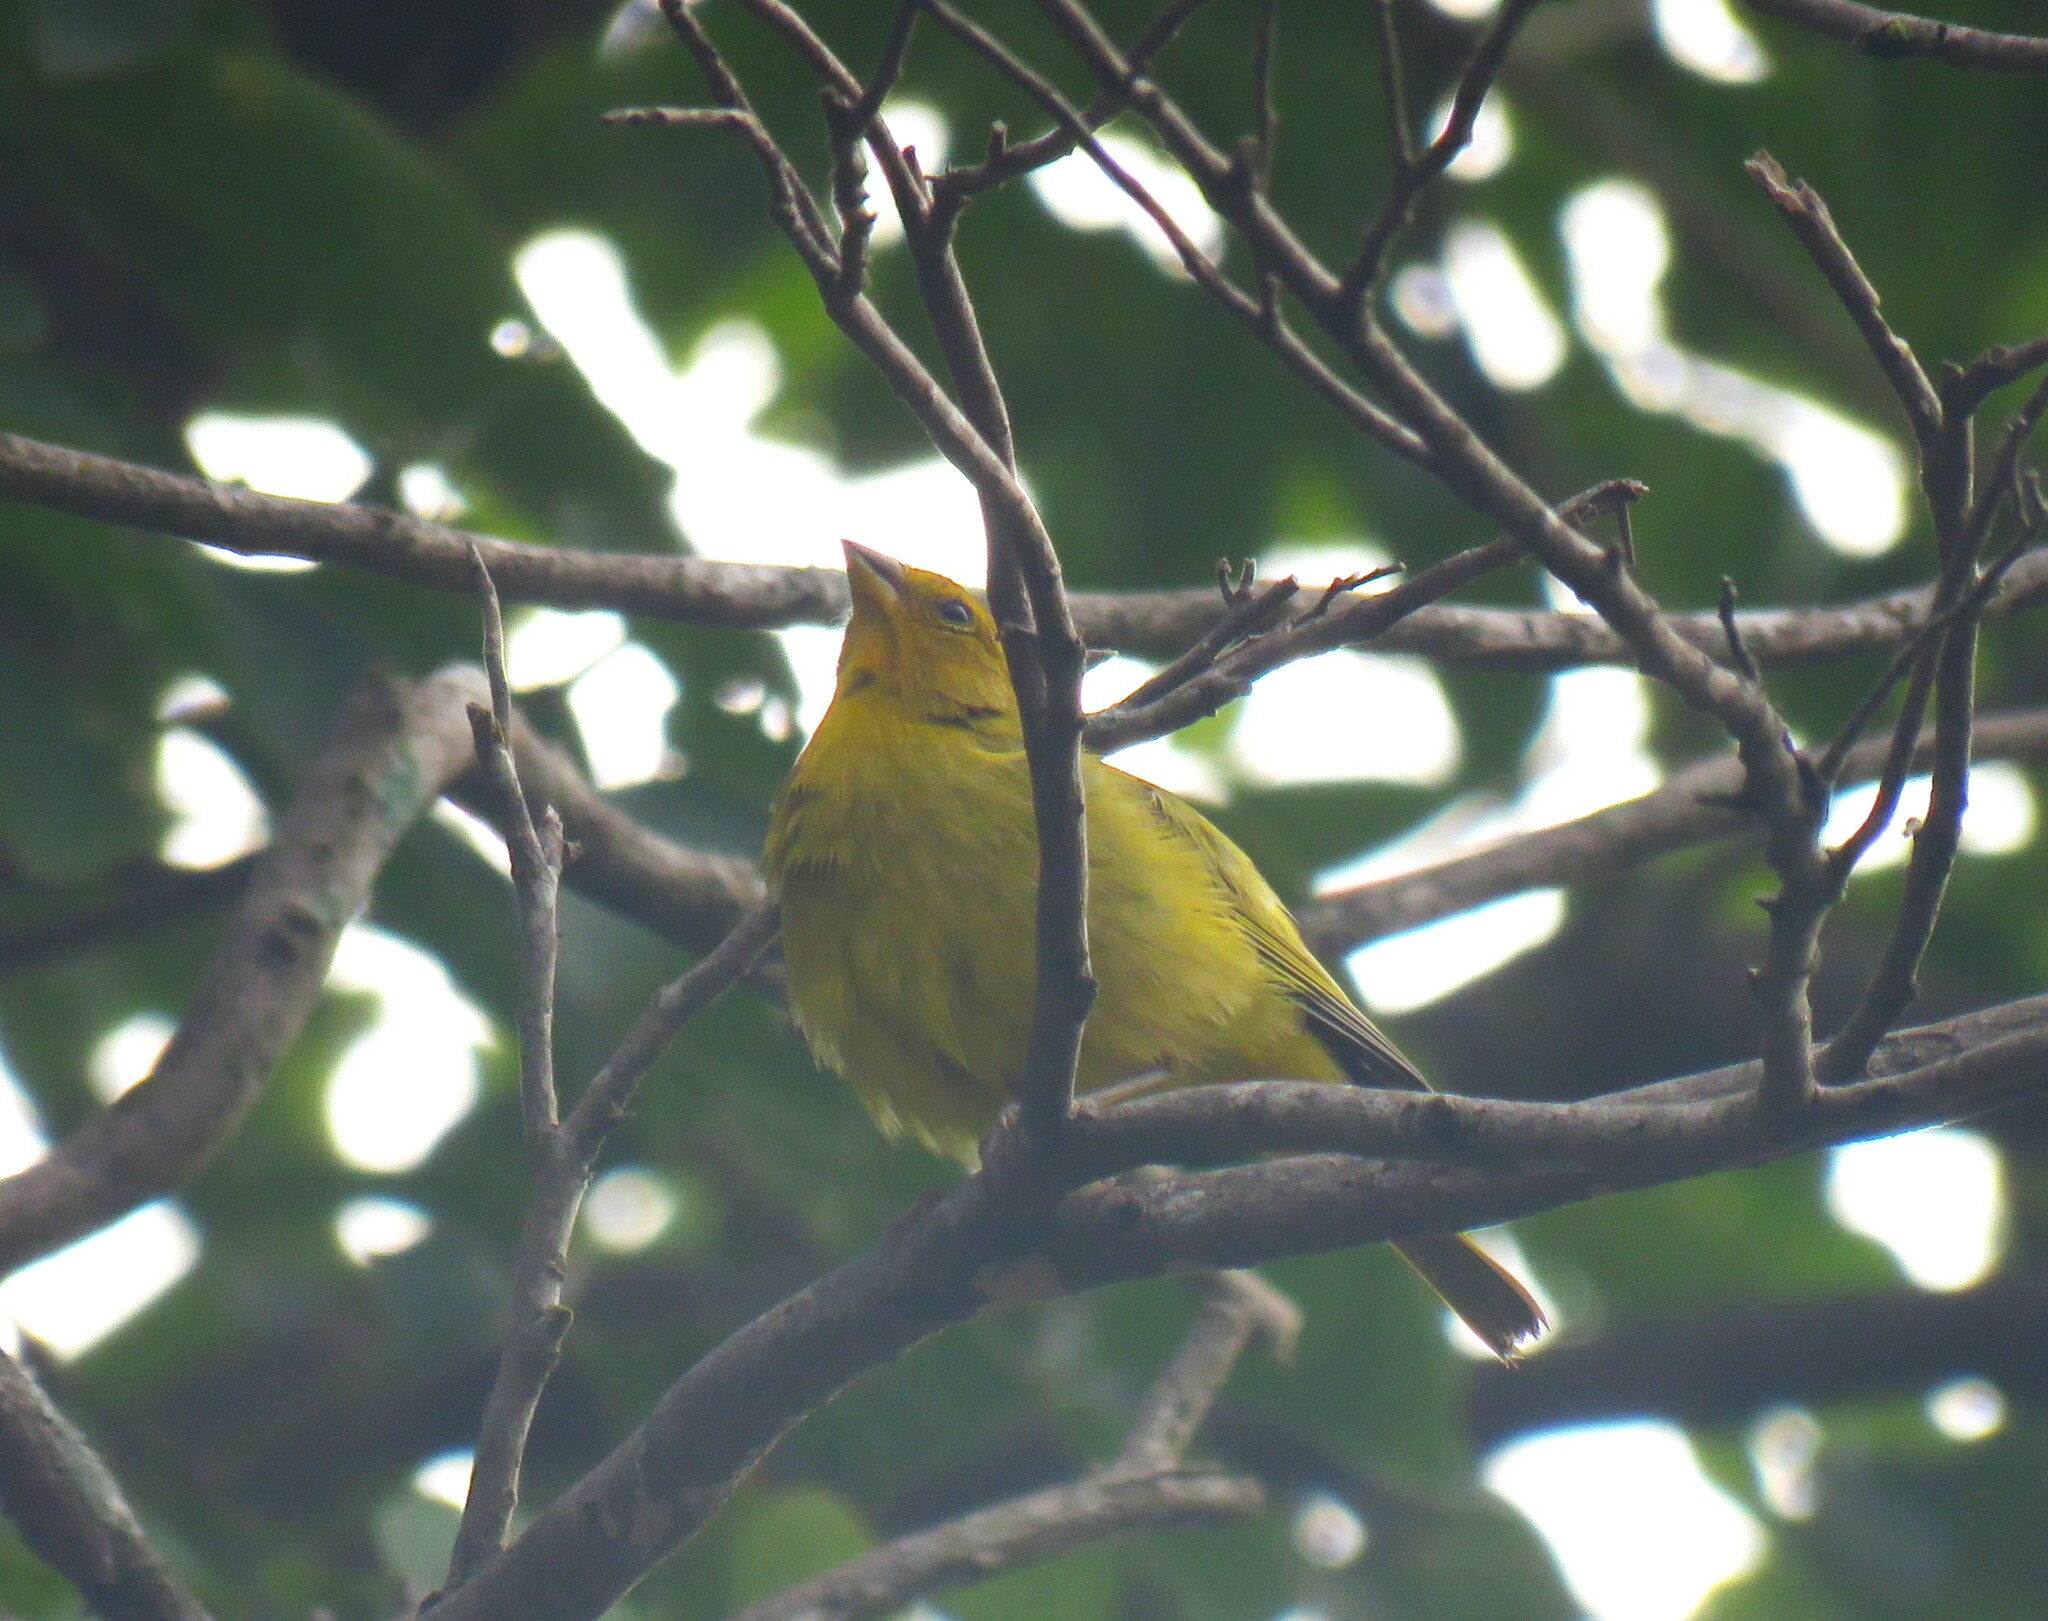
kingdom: Animalia
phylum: Chordata
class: Aves
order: Passeriformes
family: Thraupidae
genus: Sicalis
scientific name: Sicalis flaveola
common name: Saffron finch
